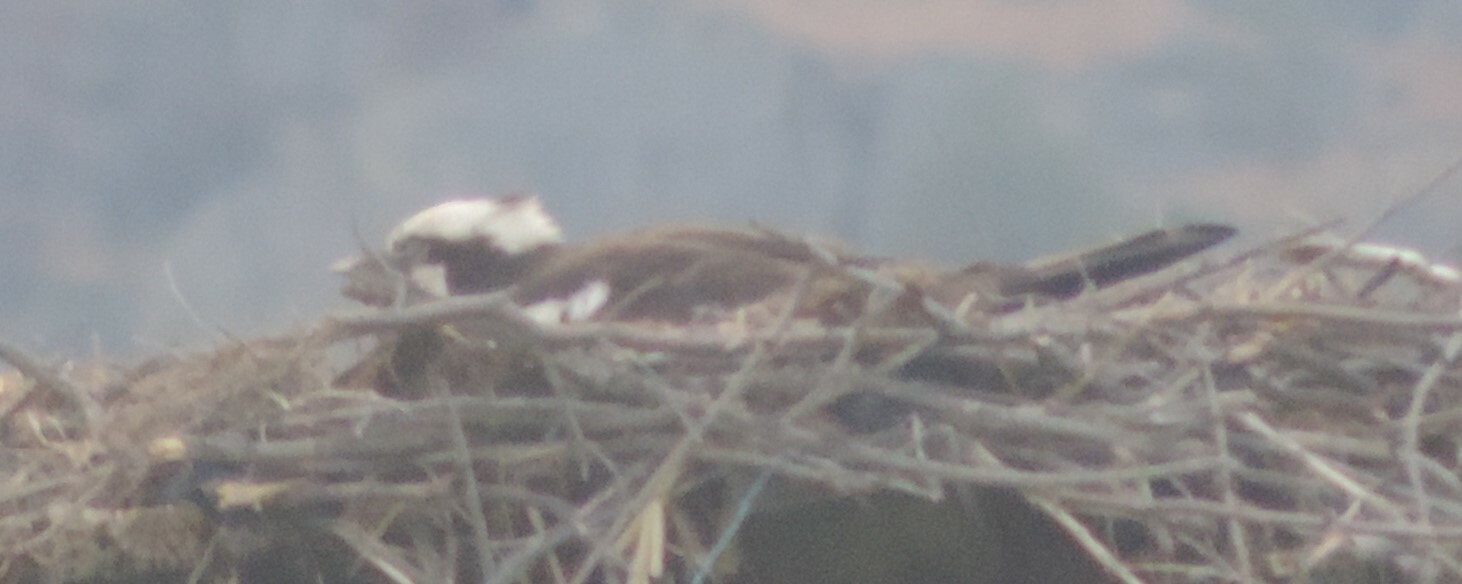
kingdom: Animalia
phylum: Chordata
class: Aves
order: Accipitriformes
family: Pandionidae
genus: Pandion
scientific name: Pandion haliaetus
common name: Osprey
